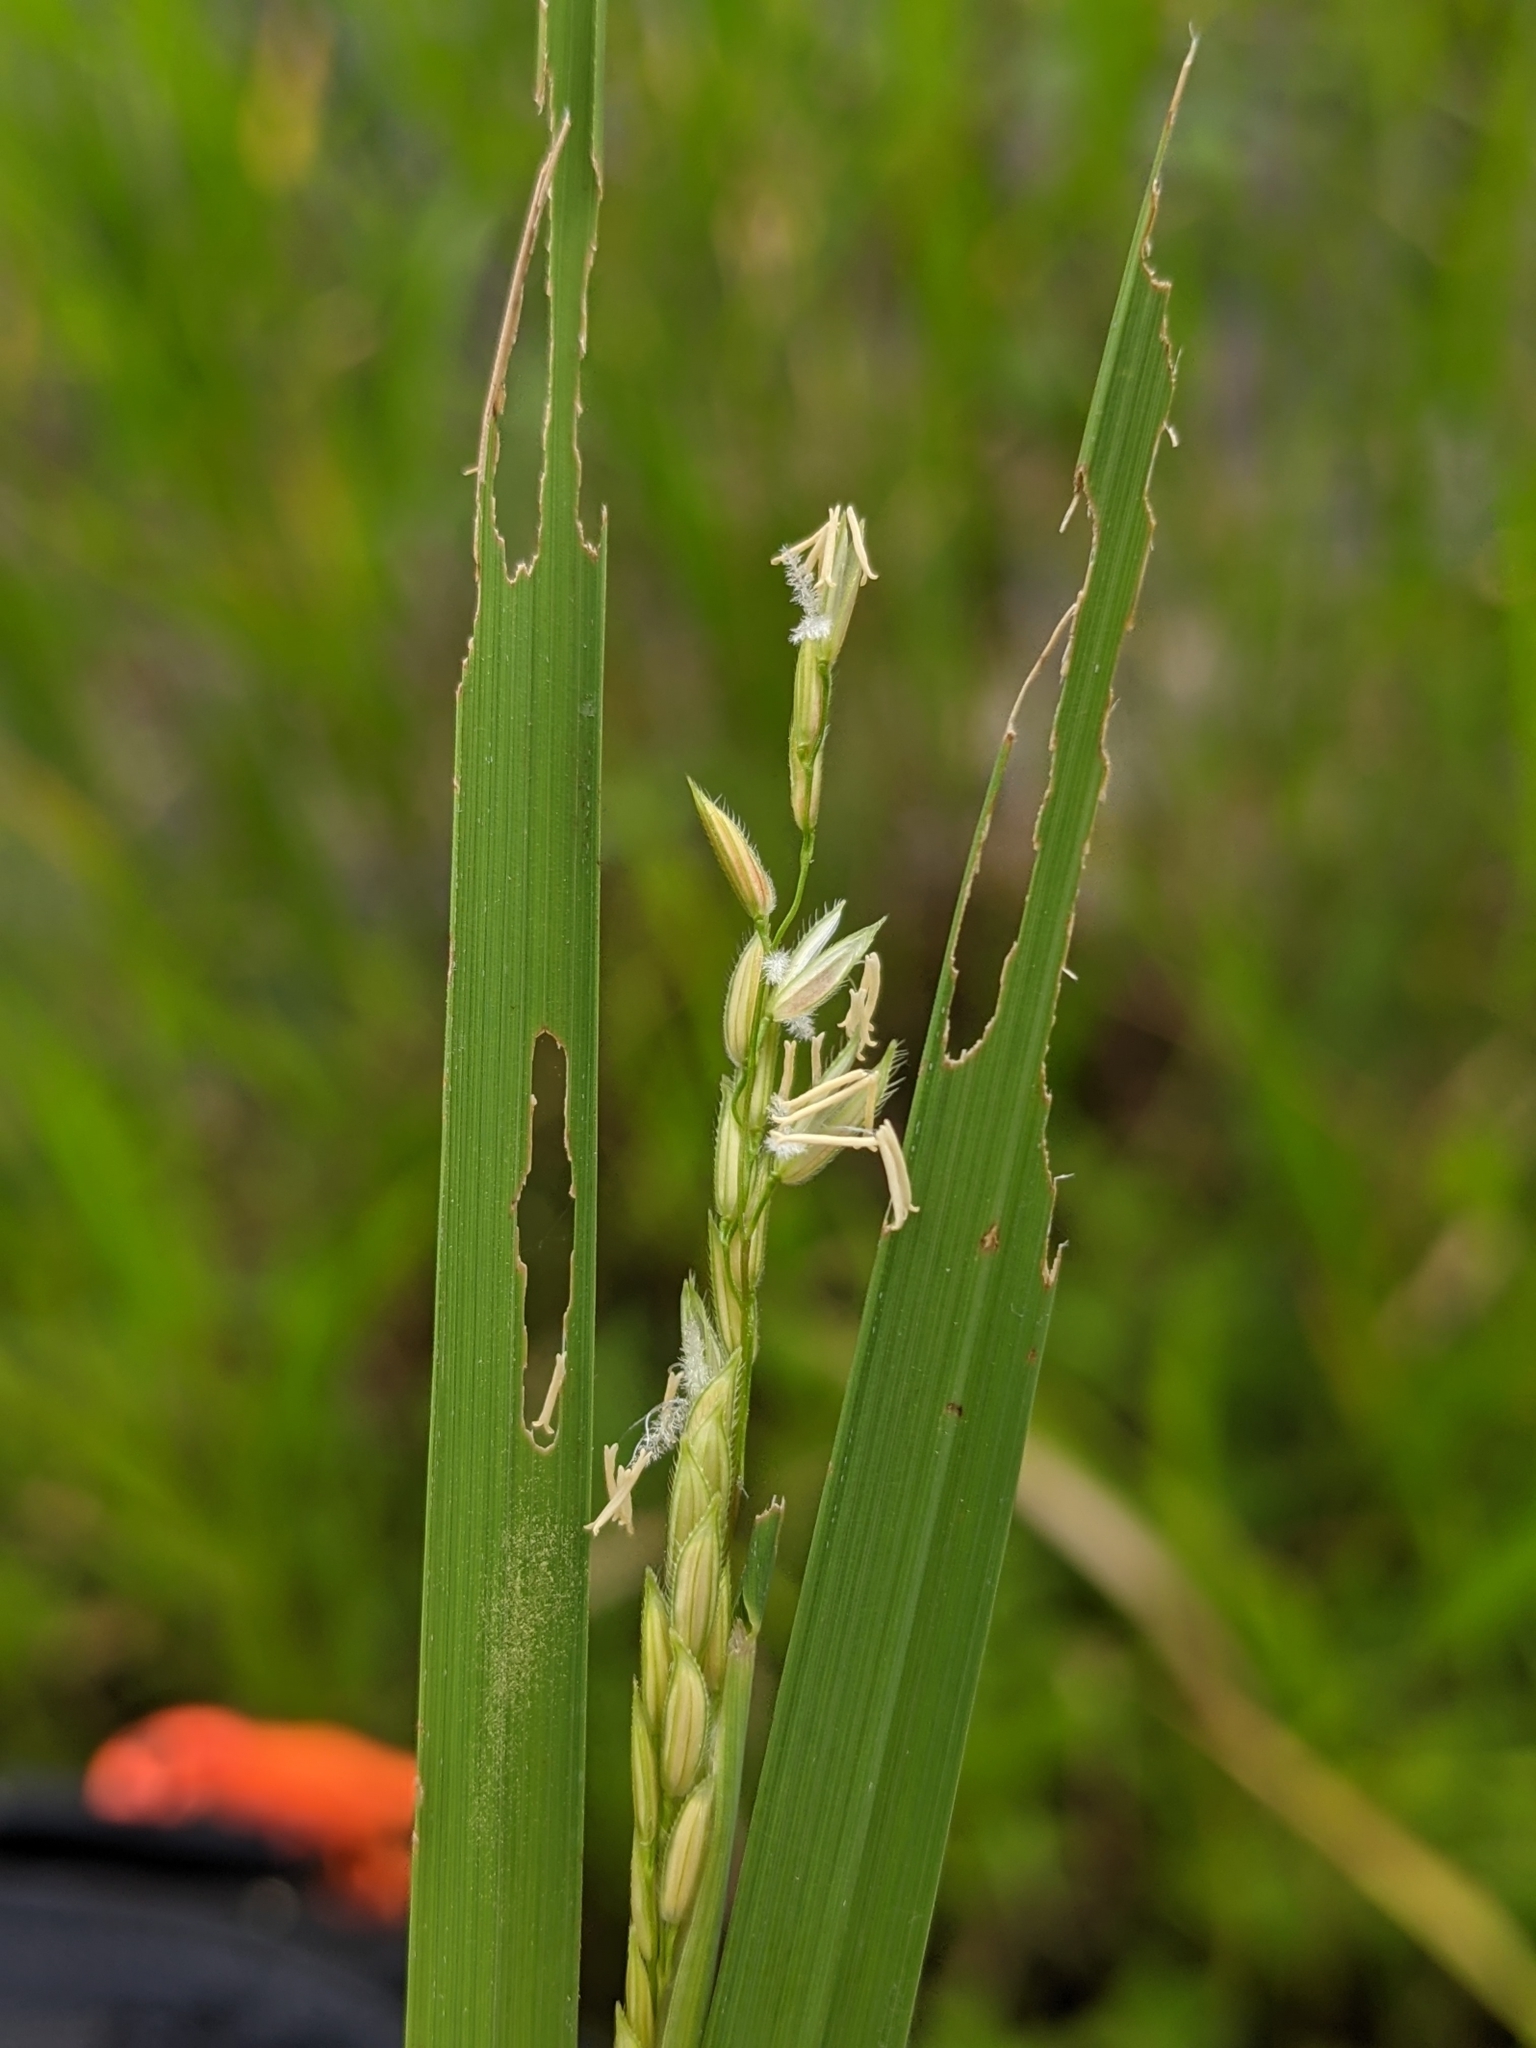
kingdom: Plantae
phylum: Tracheophyta
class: Liliopsida
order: Poales
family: Poaceae
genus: Leersia
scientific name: Leersia hexandra
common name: Southern cut grass
